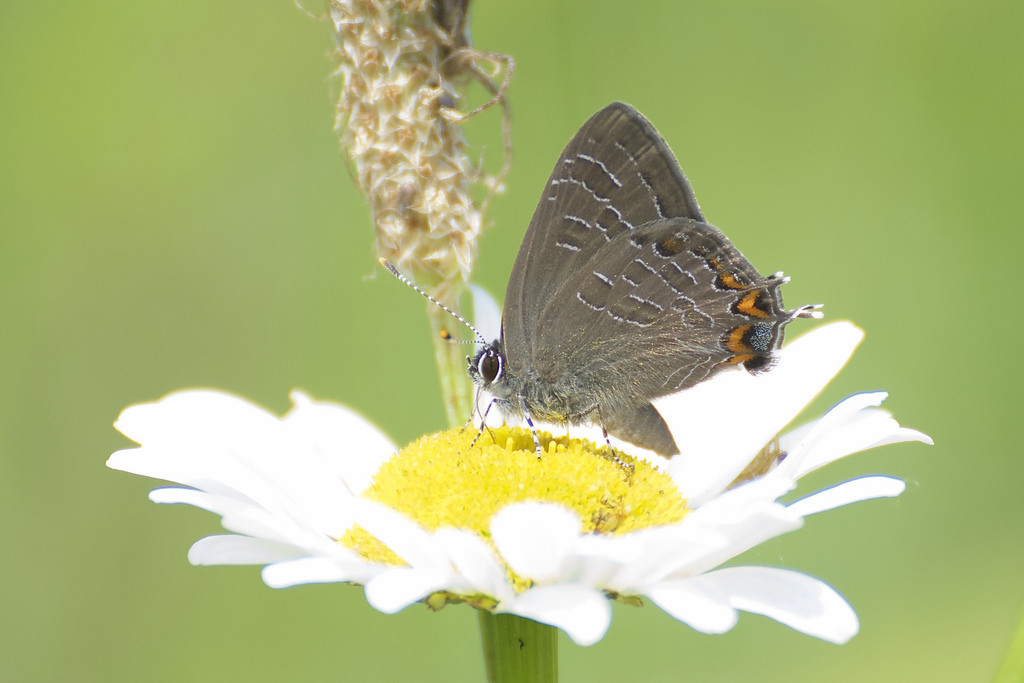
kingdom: Animalia
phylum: Arthropoda
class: Insecta
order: Lepidoptera
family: Lycaenidae
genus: Satyrium
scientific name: Satyrium liparops
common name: Striped hairstreak
